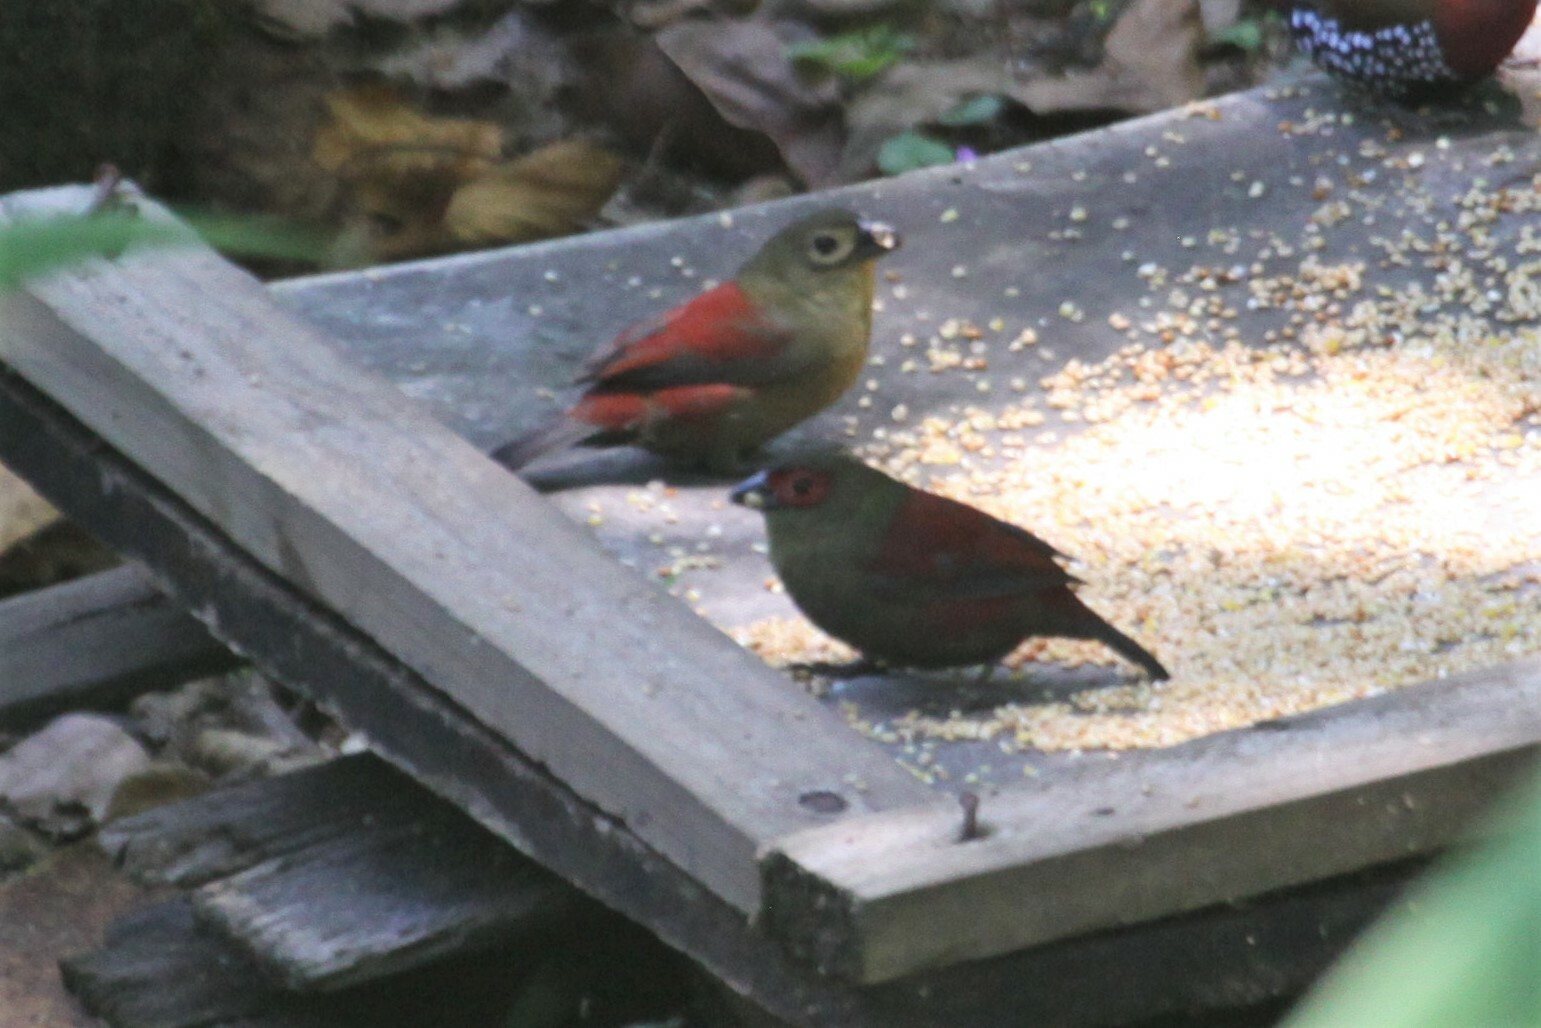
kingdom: Animalia
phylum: Chordata
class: Aves
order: Passeriformes
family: Estrildidae
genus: Cryptospiza
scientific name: Cryptospiza reichenovii
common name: Red-faced crimsonwing
